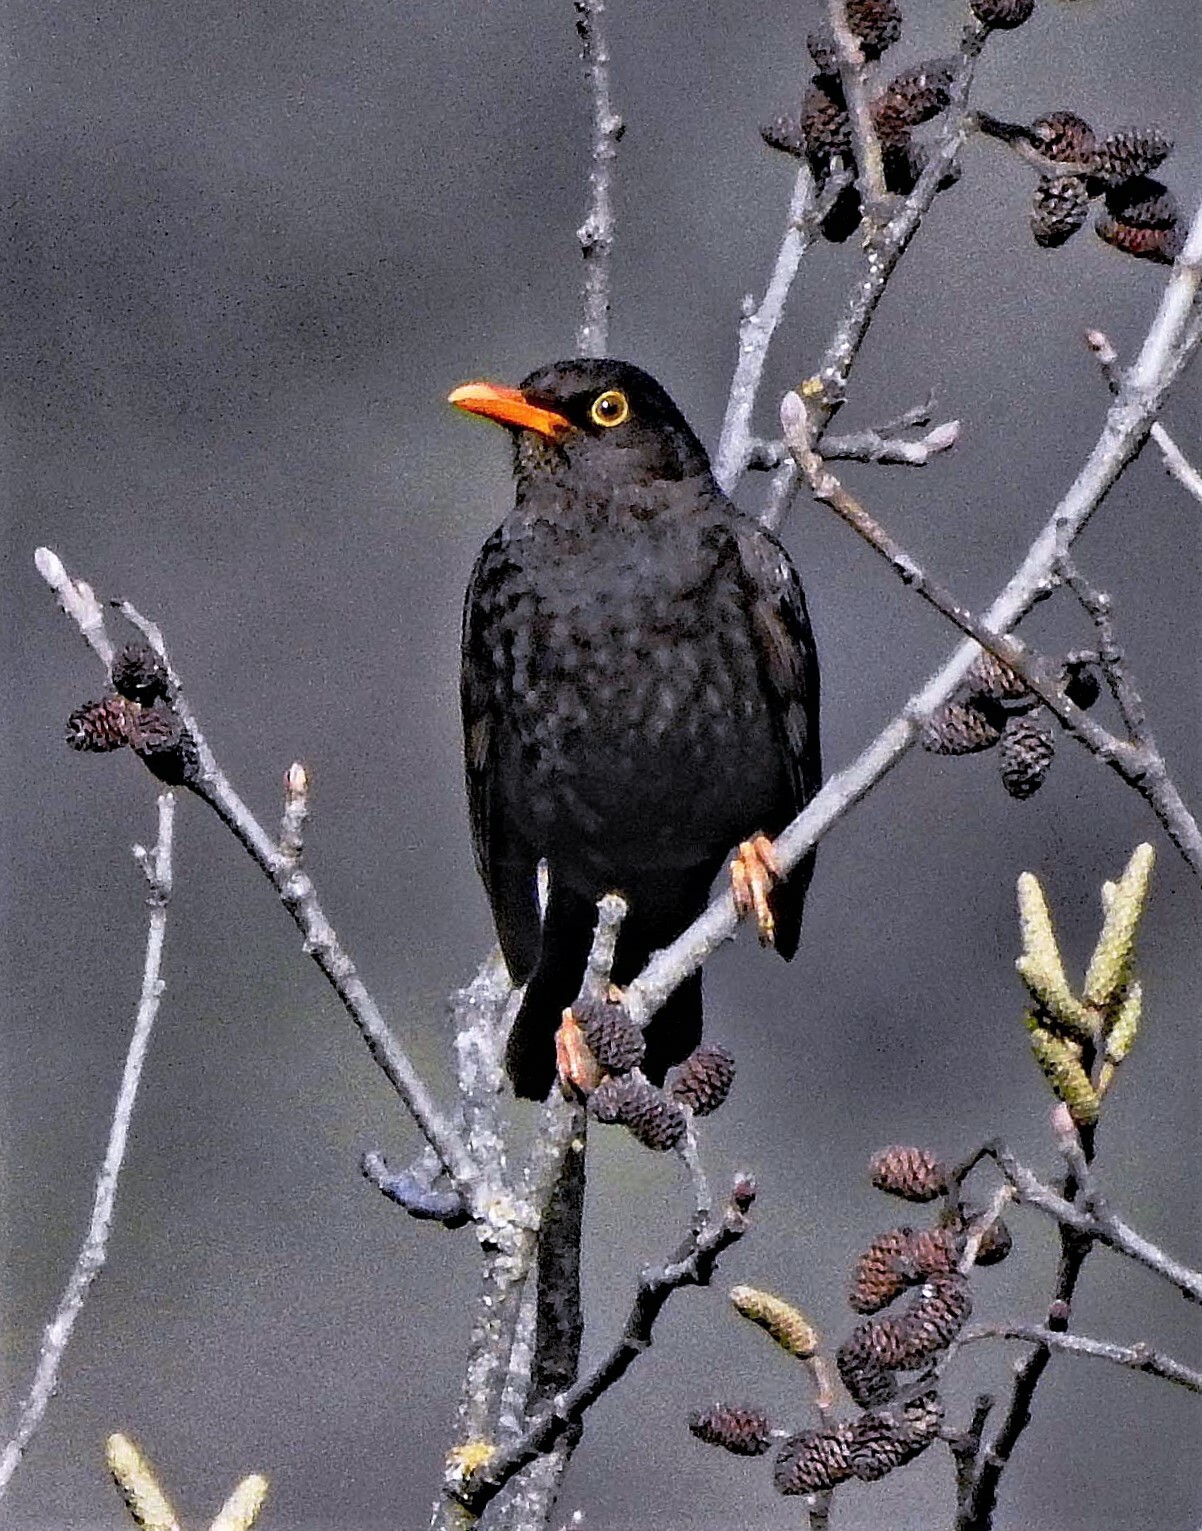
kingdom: Animalia
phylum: Chordata
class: Aves
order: Passeriformes
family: Turdidae
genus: Turdus
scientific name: Turdus chiguanco
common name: Chiguanco thrush
